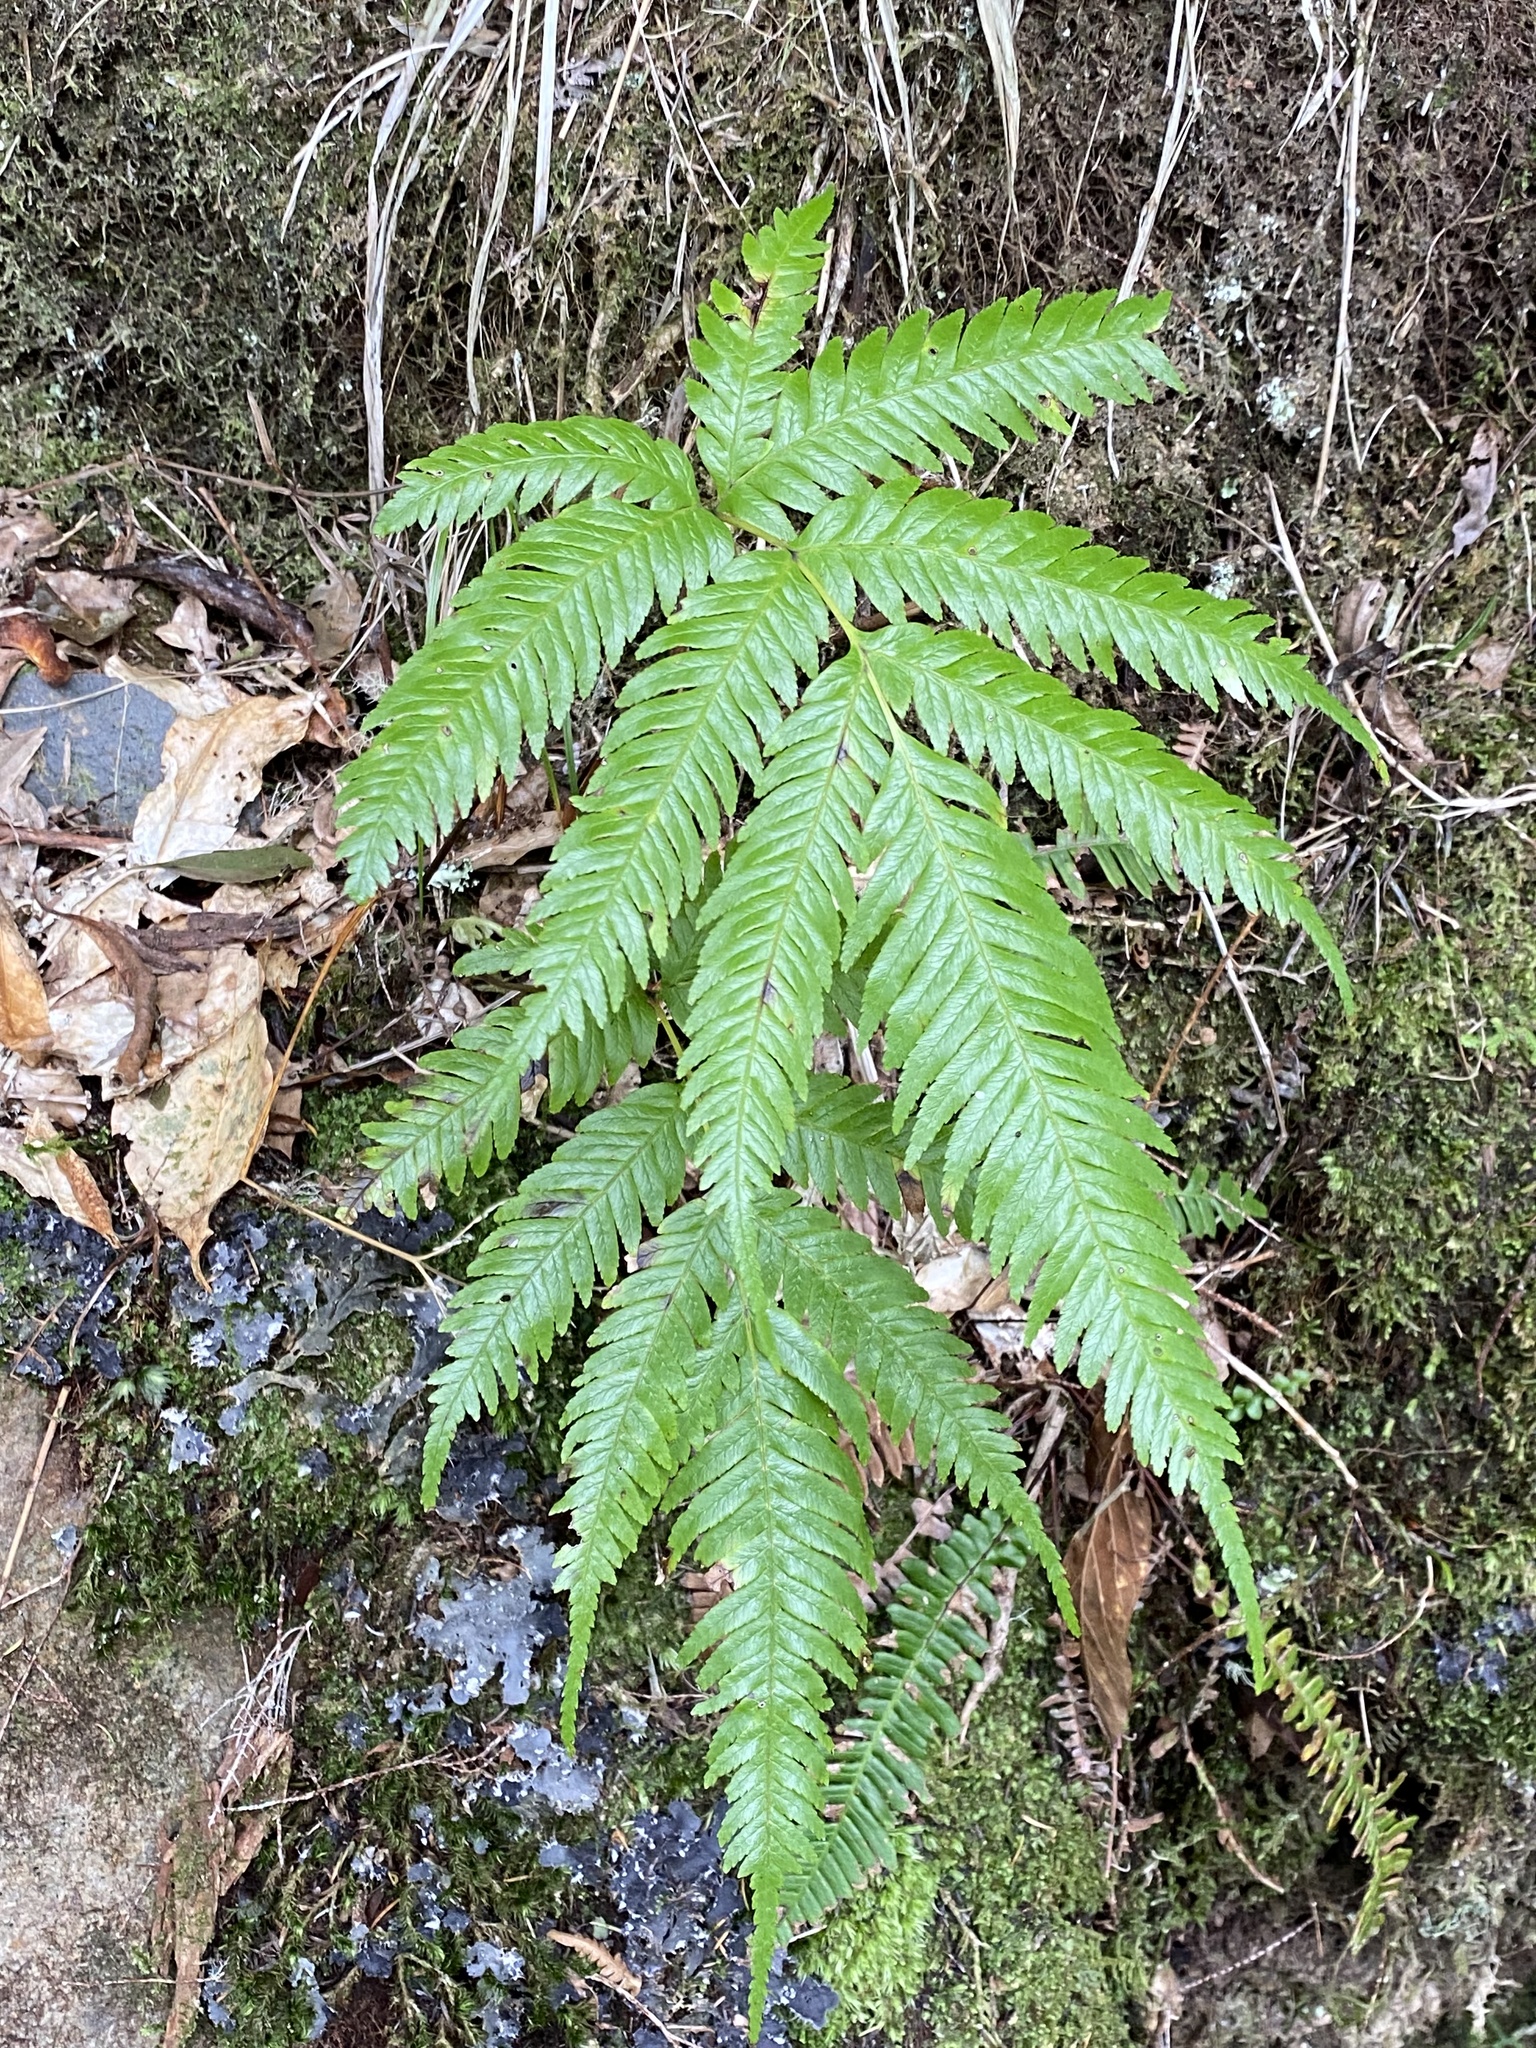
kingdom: Plantae
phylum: Tracheophyta
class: Polypodiopsida
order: Polypodiales
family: Pteridaceae
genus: Pteris
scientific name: Pteris incompleta
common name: Laurisilva brake
